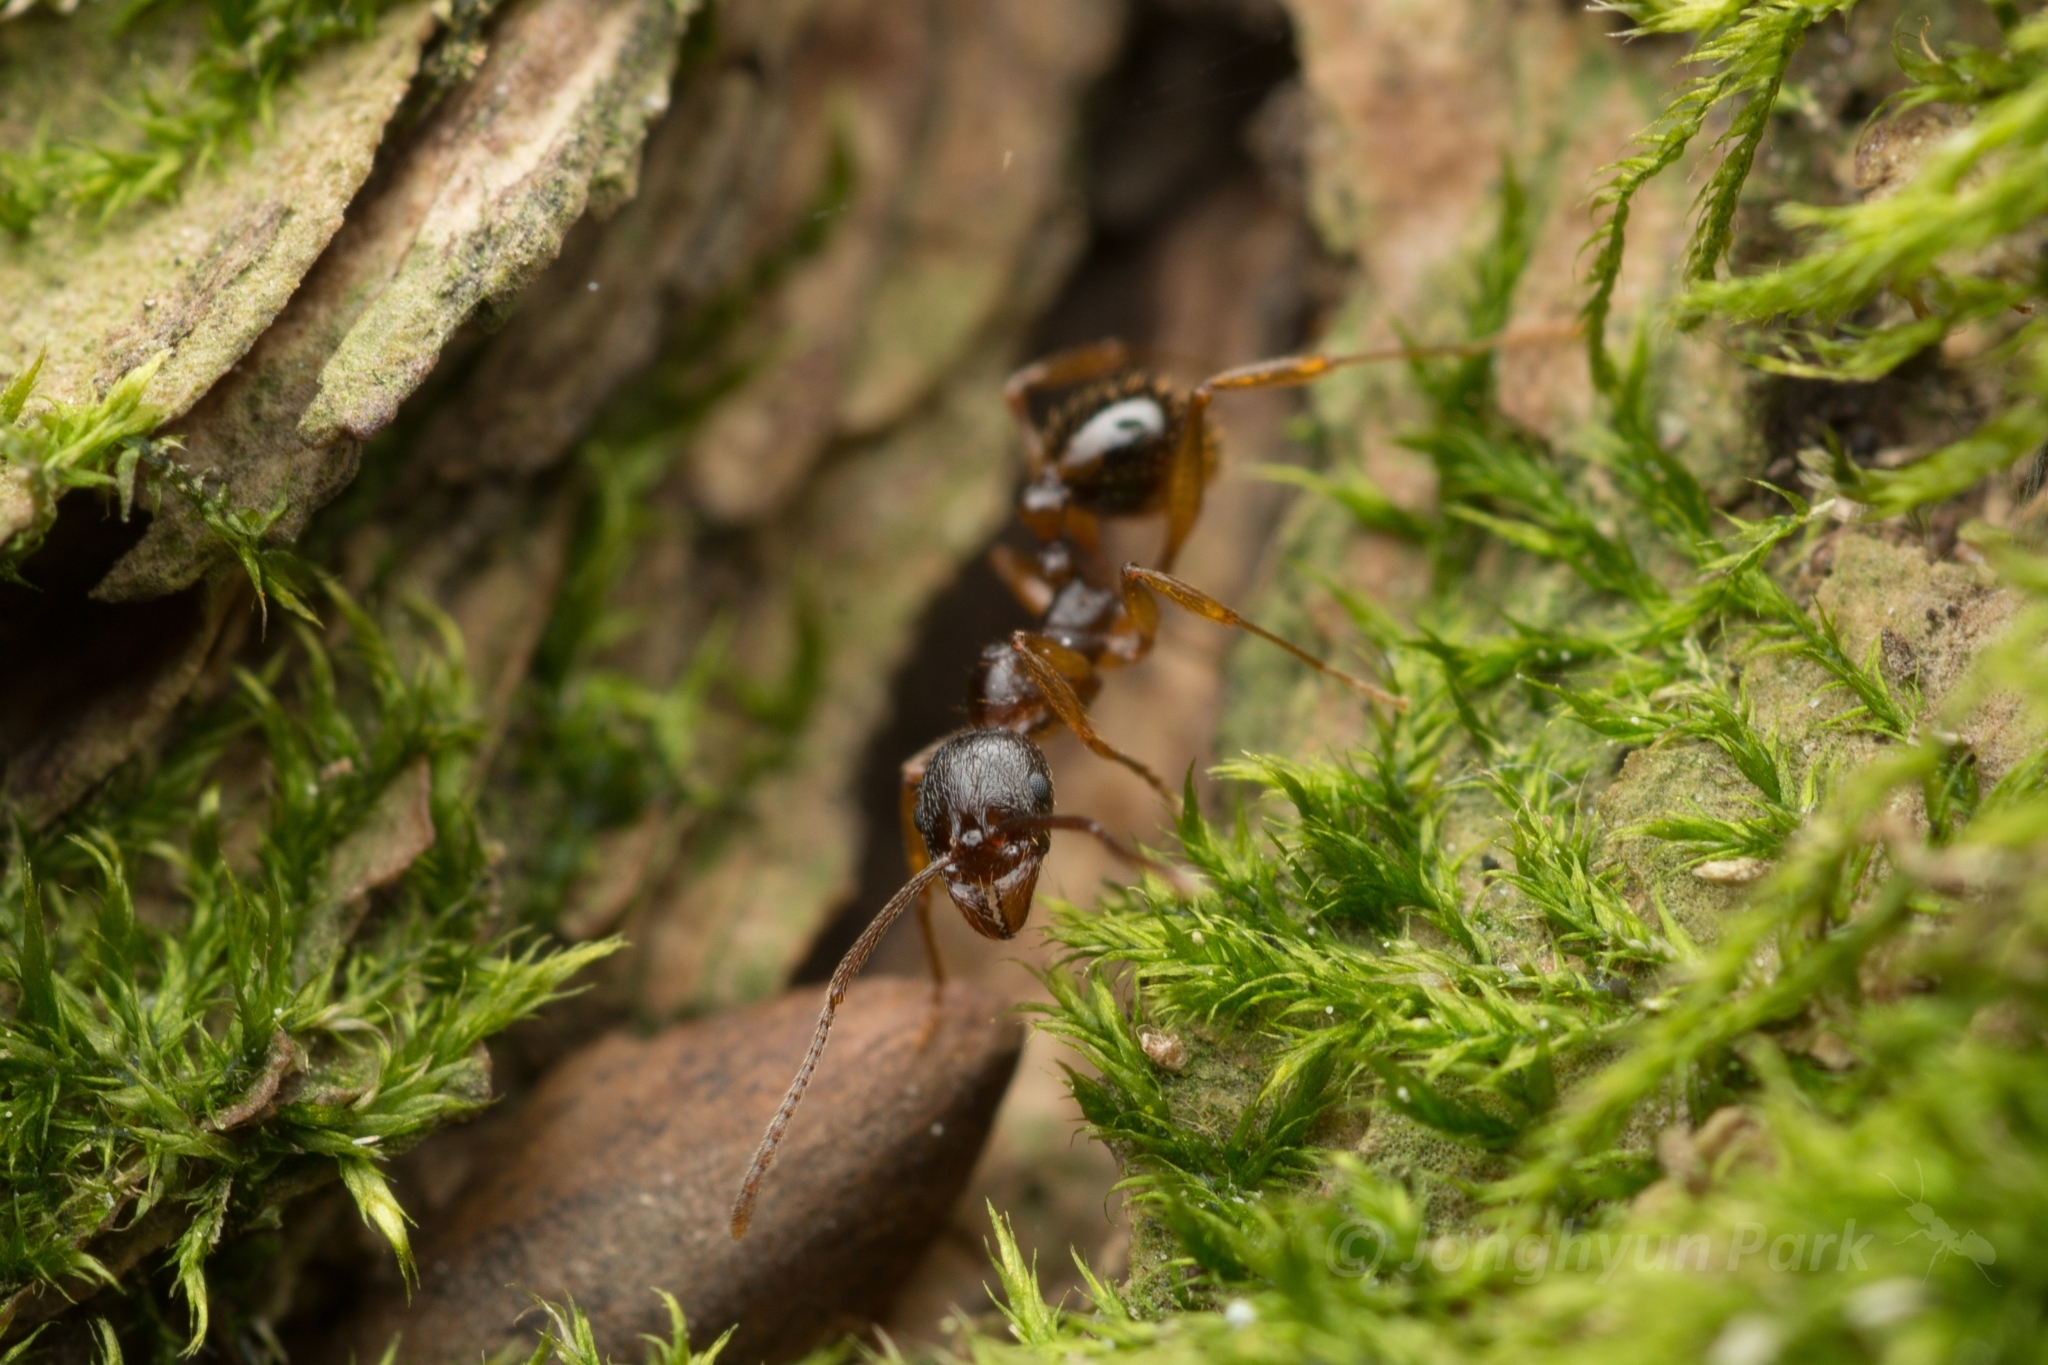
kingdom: Animalia
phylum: Arthropoda
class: Insecta
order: Hymenoptera
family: Formicidae
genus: Aphaenogaster
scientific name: Aphaenogaster japonica
